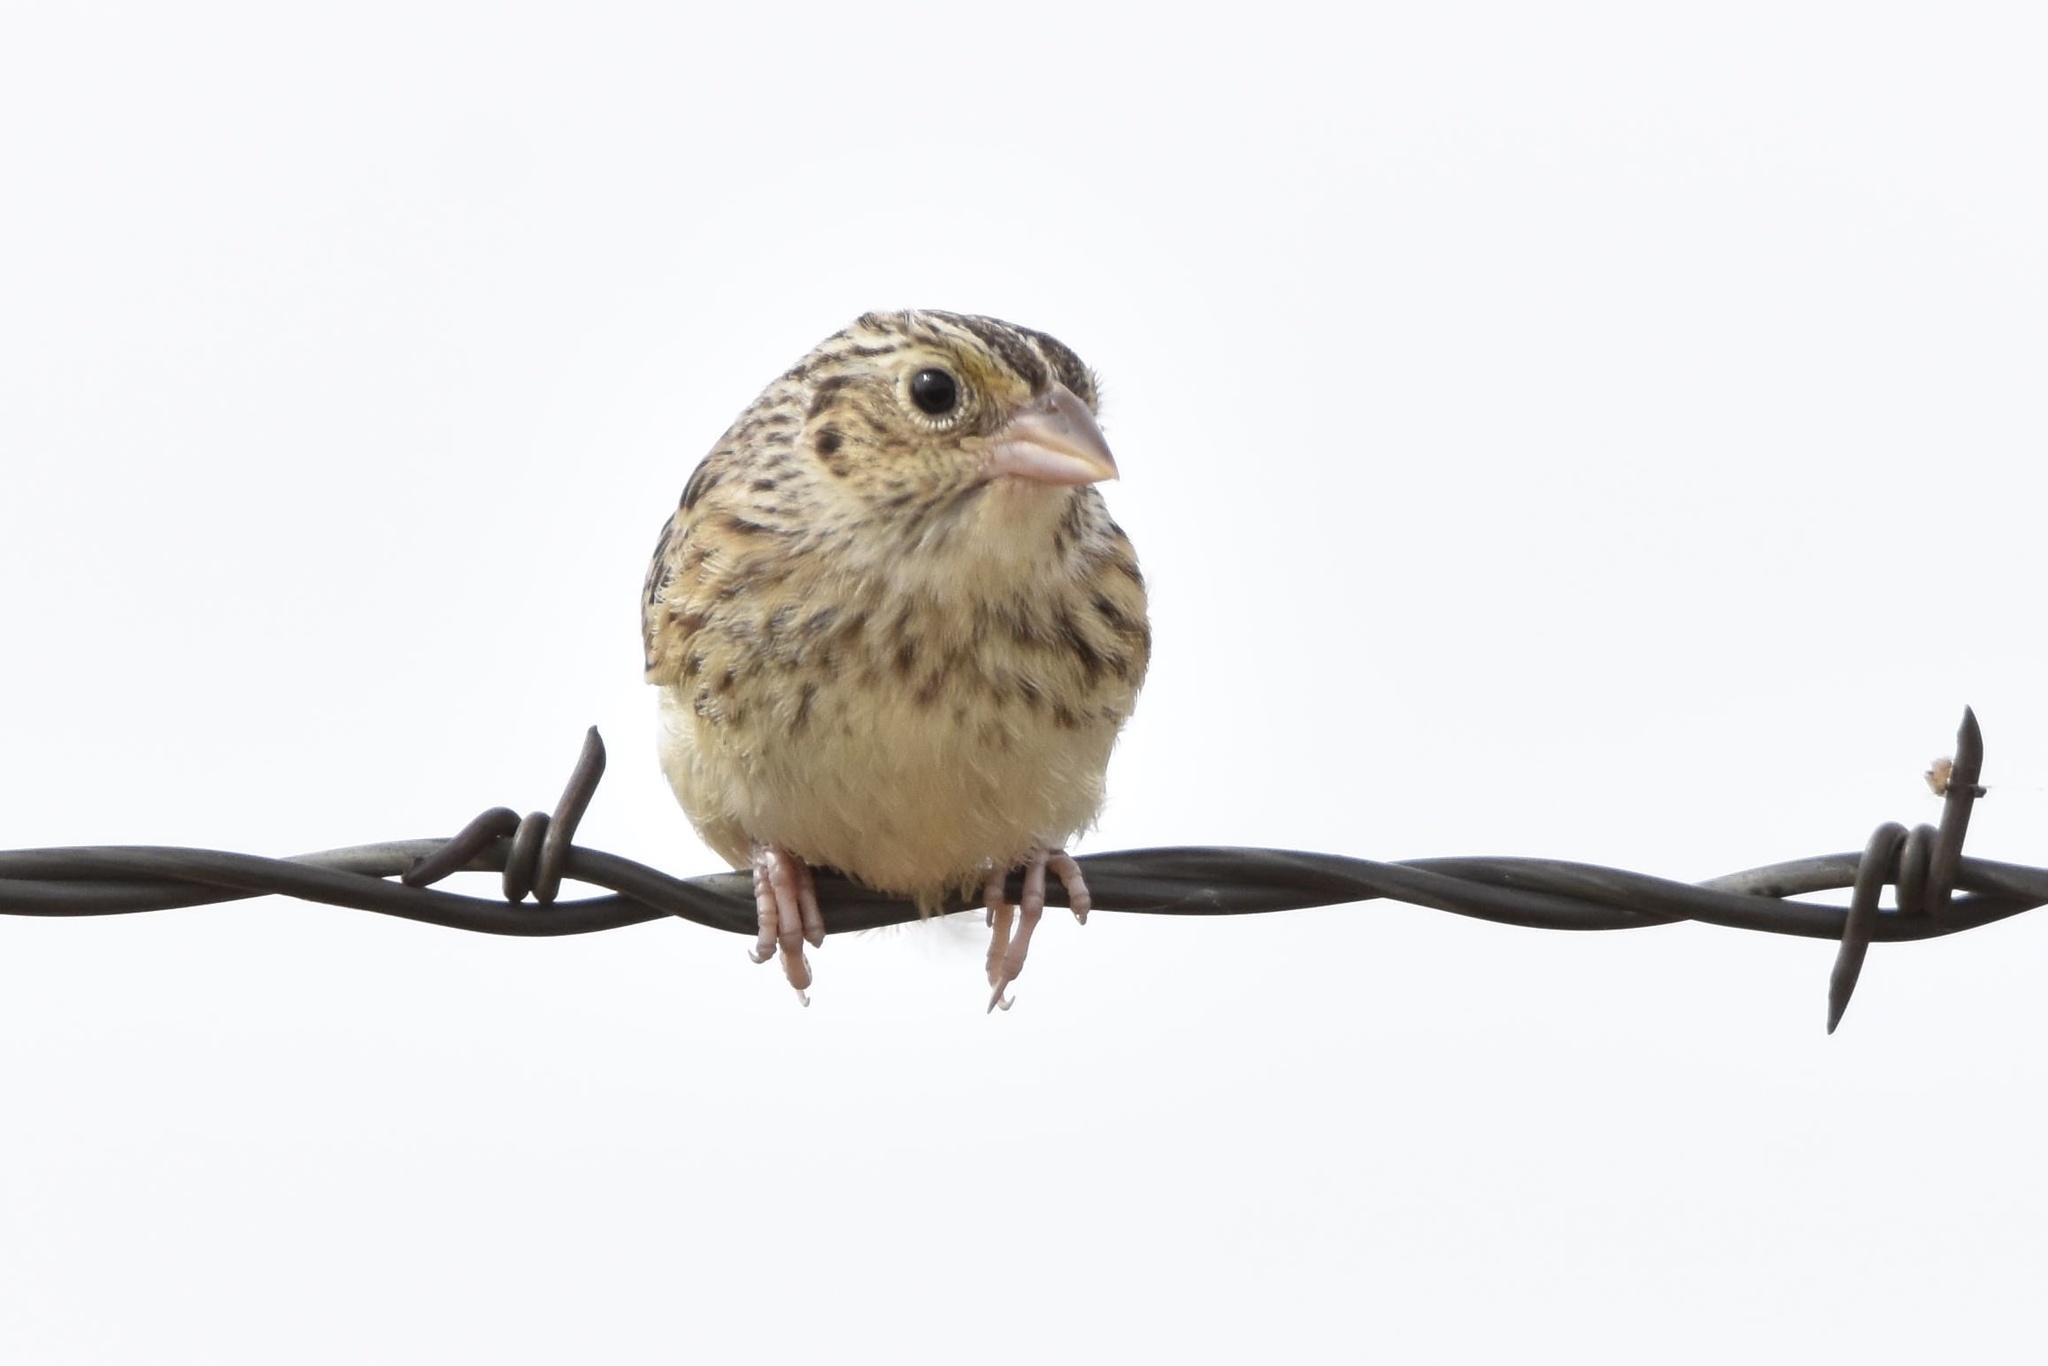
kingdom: Animalia
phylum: Chordata
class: Aves
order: Passeriformes
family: Passerellidae
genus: Ammodramus
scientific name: Ammodramus savannarum
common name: Grasshopper sparrow
